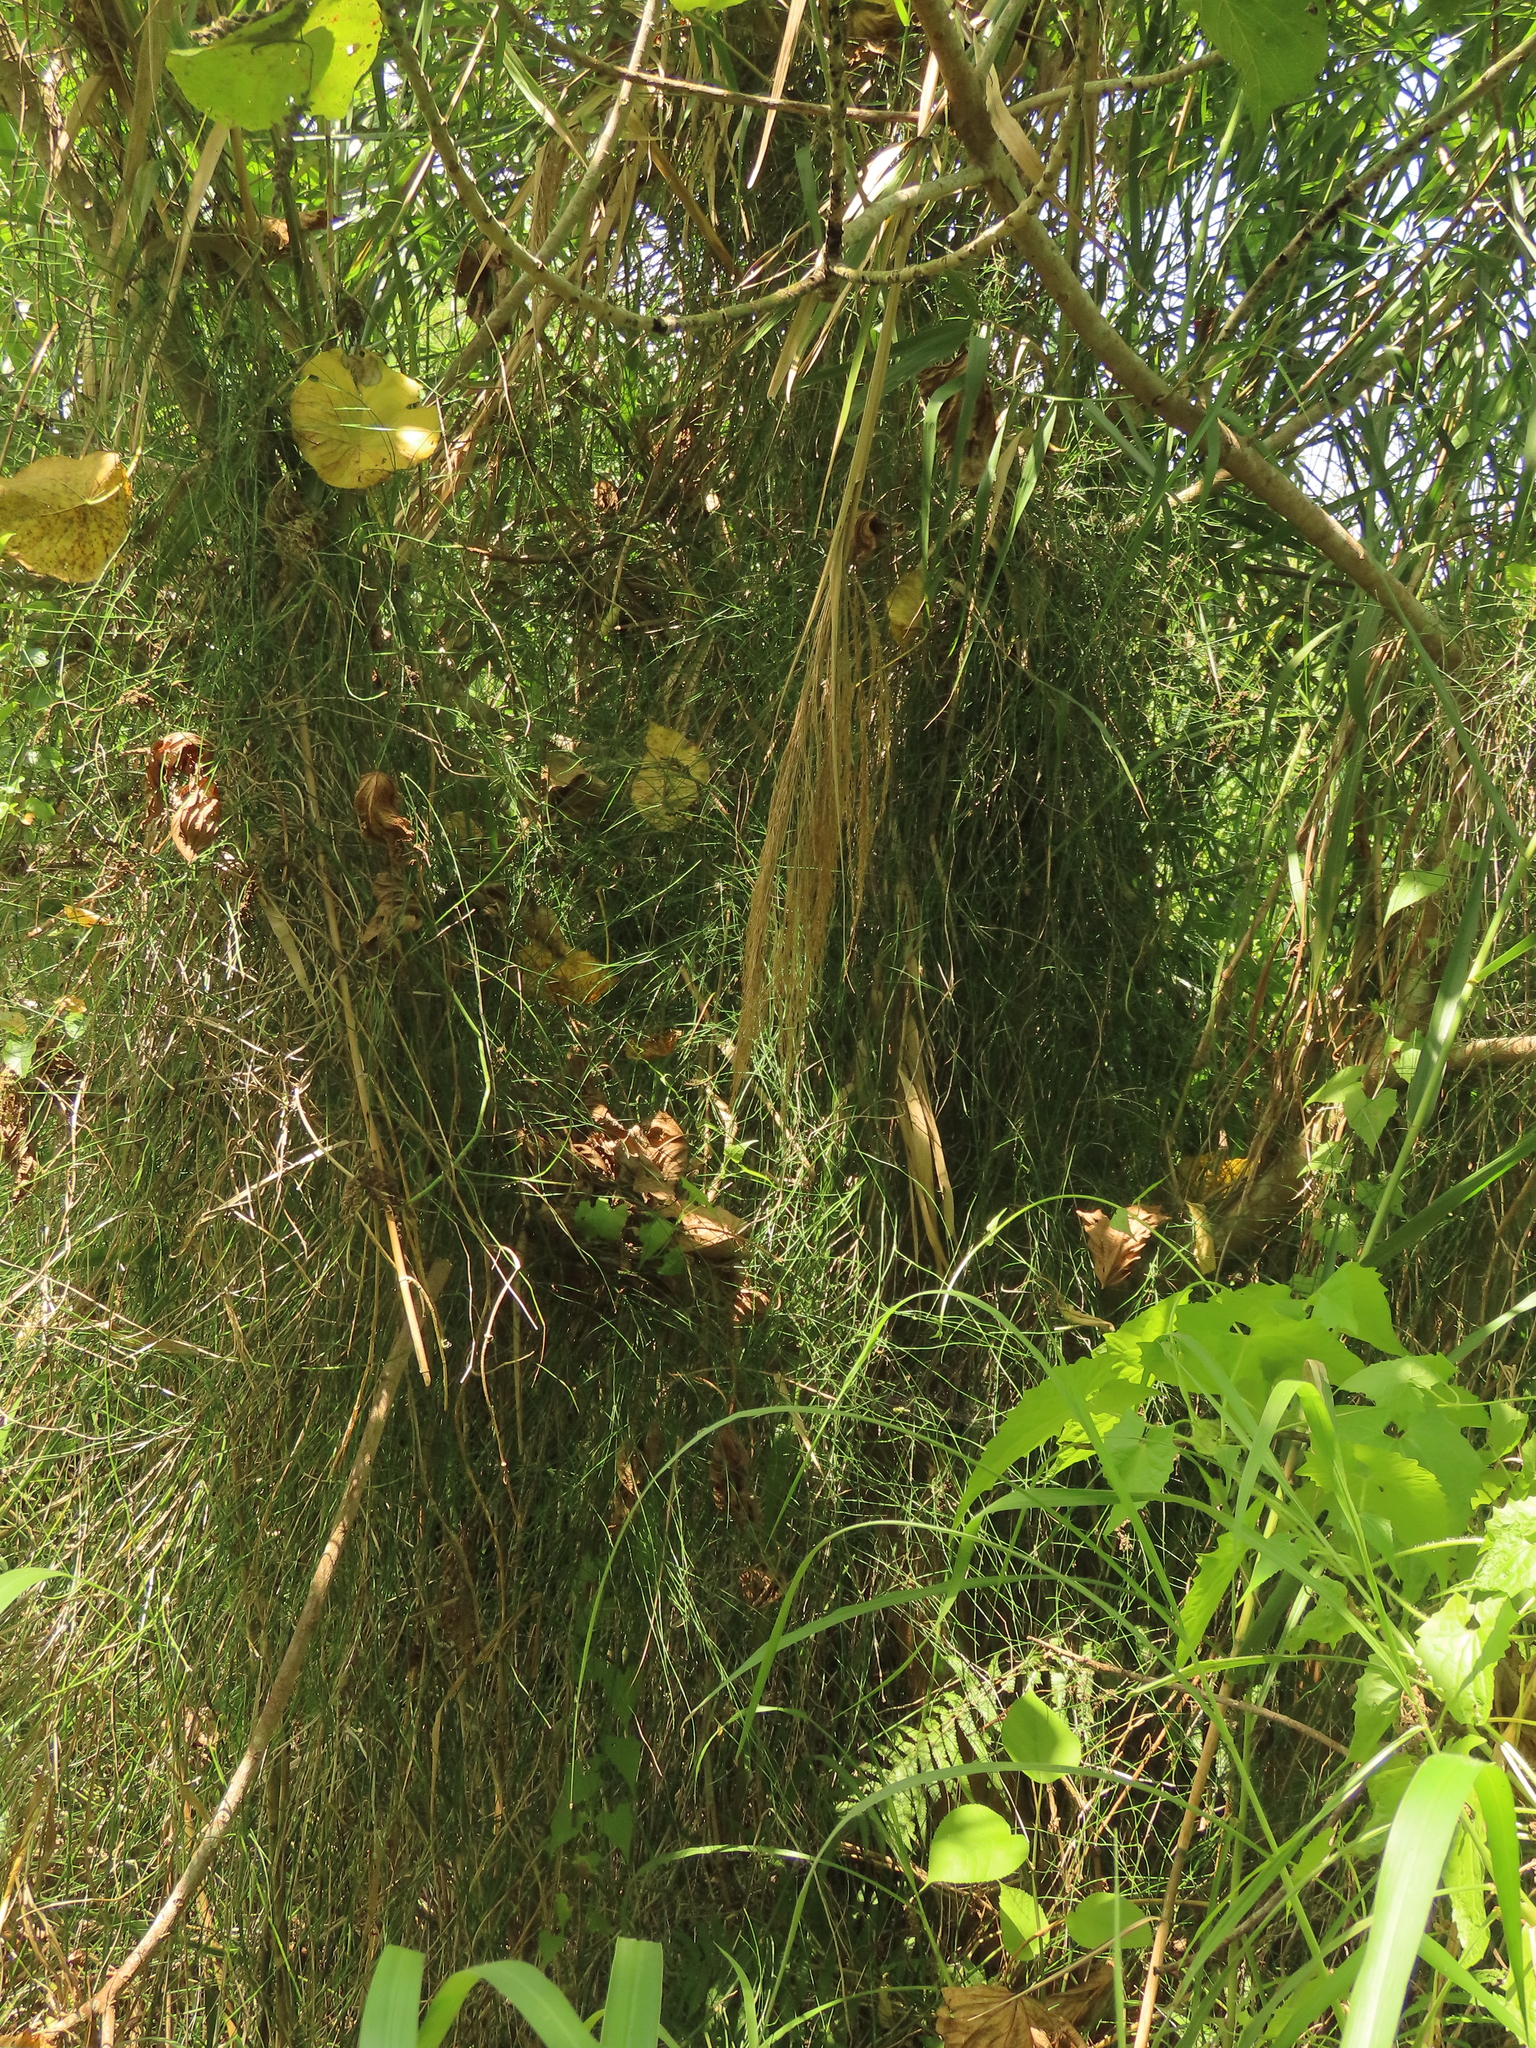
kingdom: Plantae
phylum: Tracheophyta
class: Polypodiopsida
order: Equisetales
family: Equisetaceae
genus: Equisetum
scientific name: Equisetum ramosissimum
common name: Branched horsetail
